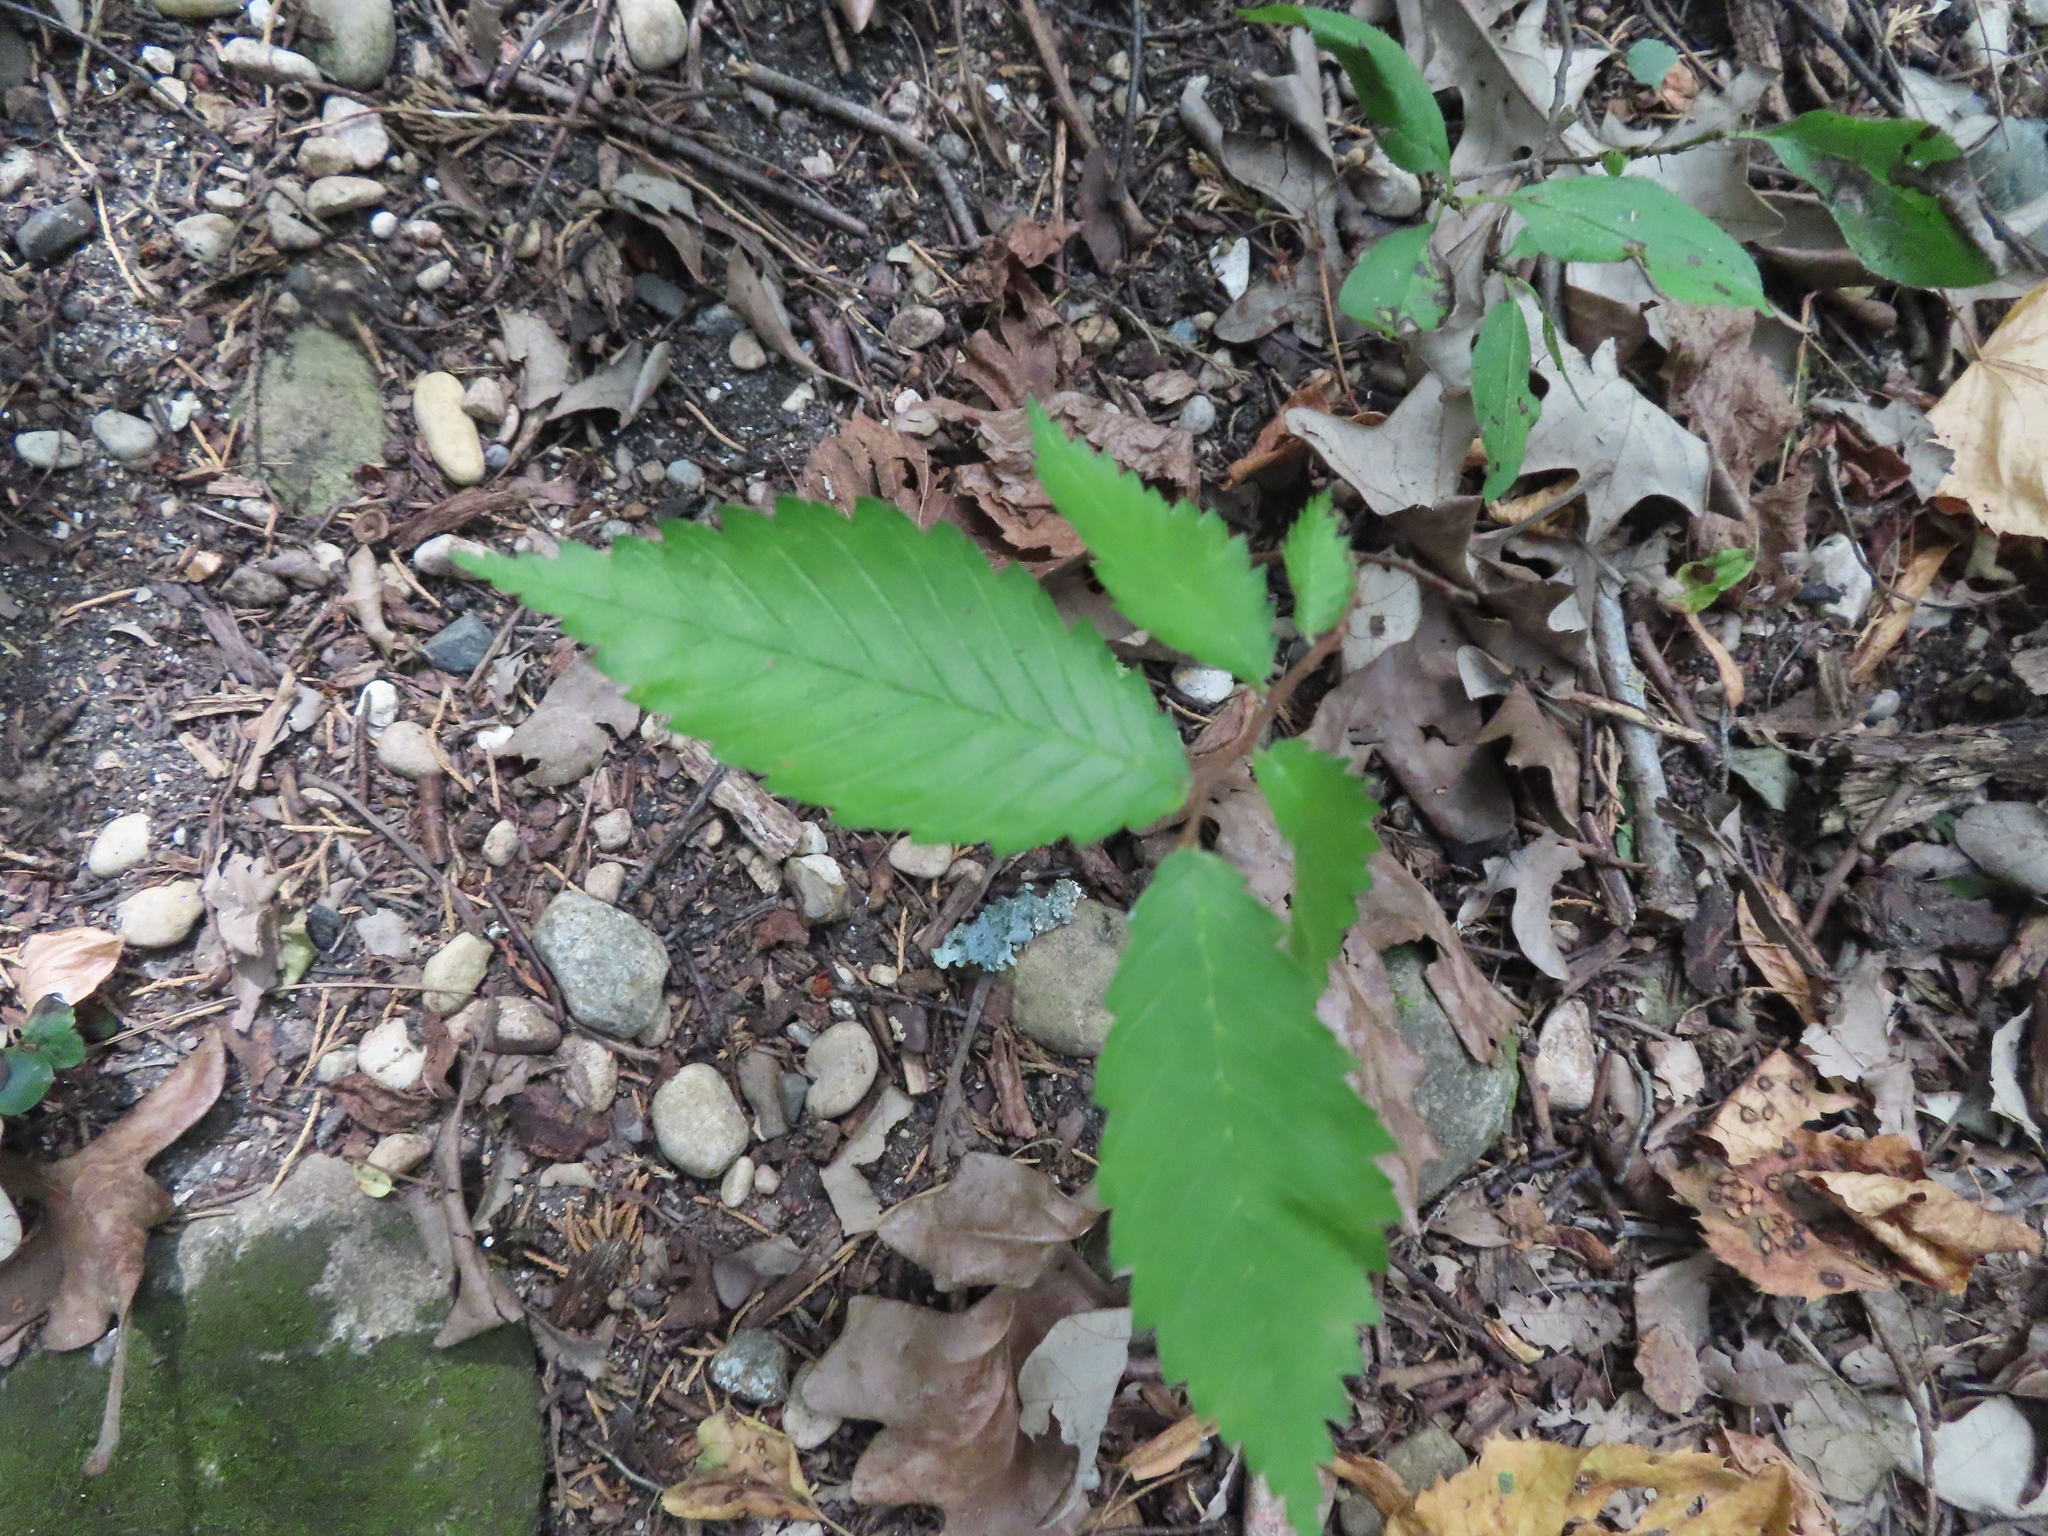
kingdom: Plantae
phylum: Tracheophyta
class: Magnoliopsida
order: Rosales
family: Ulmaceae
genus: Ulmus
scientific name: Ulmus americana
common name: American elm
